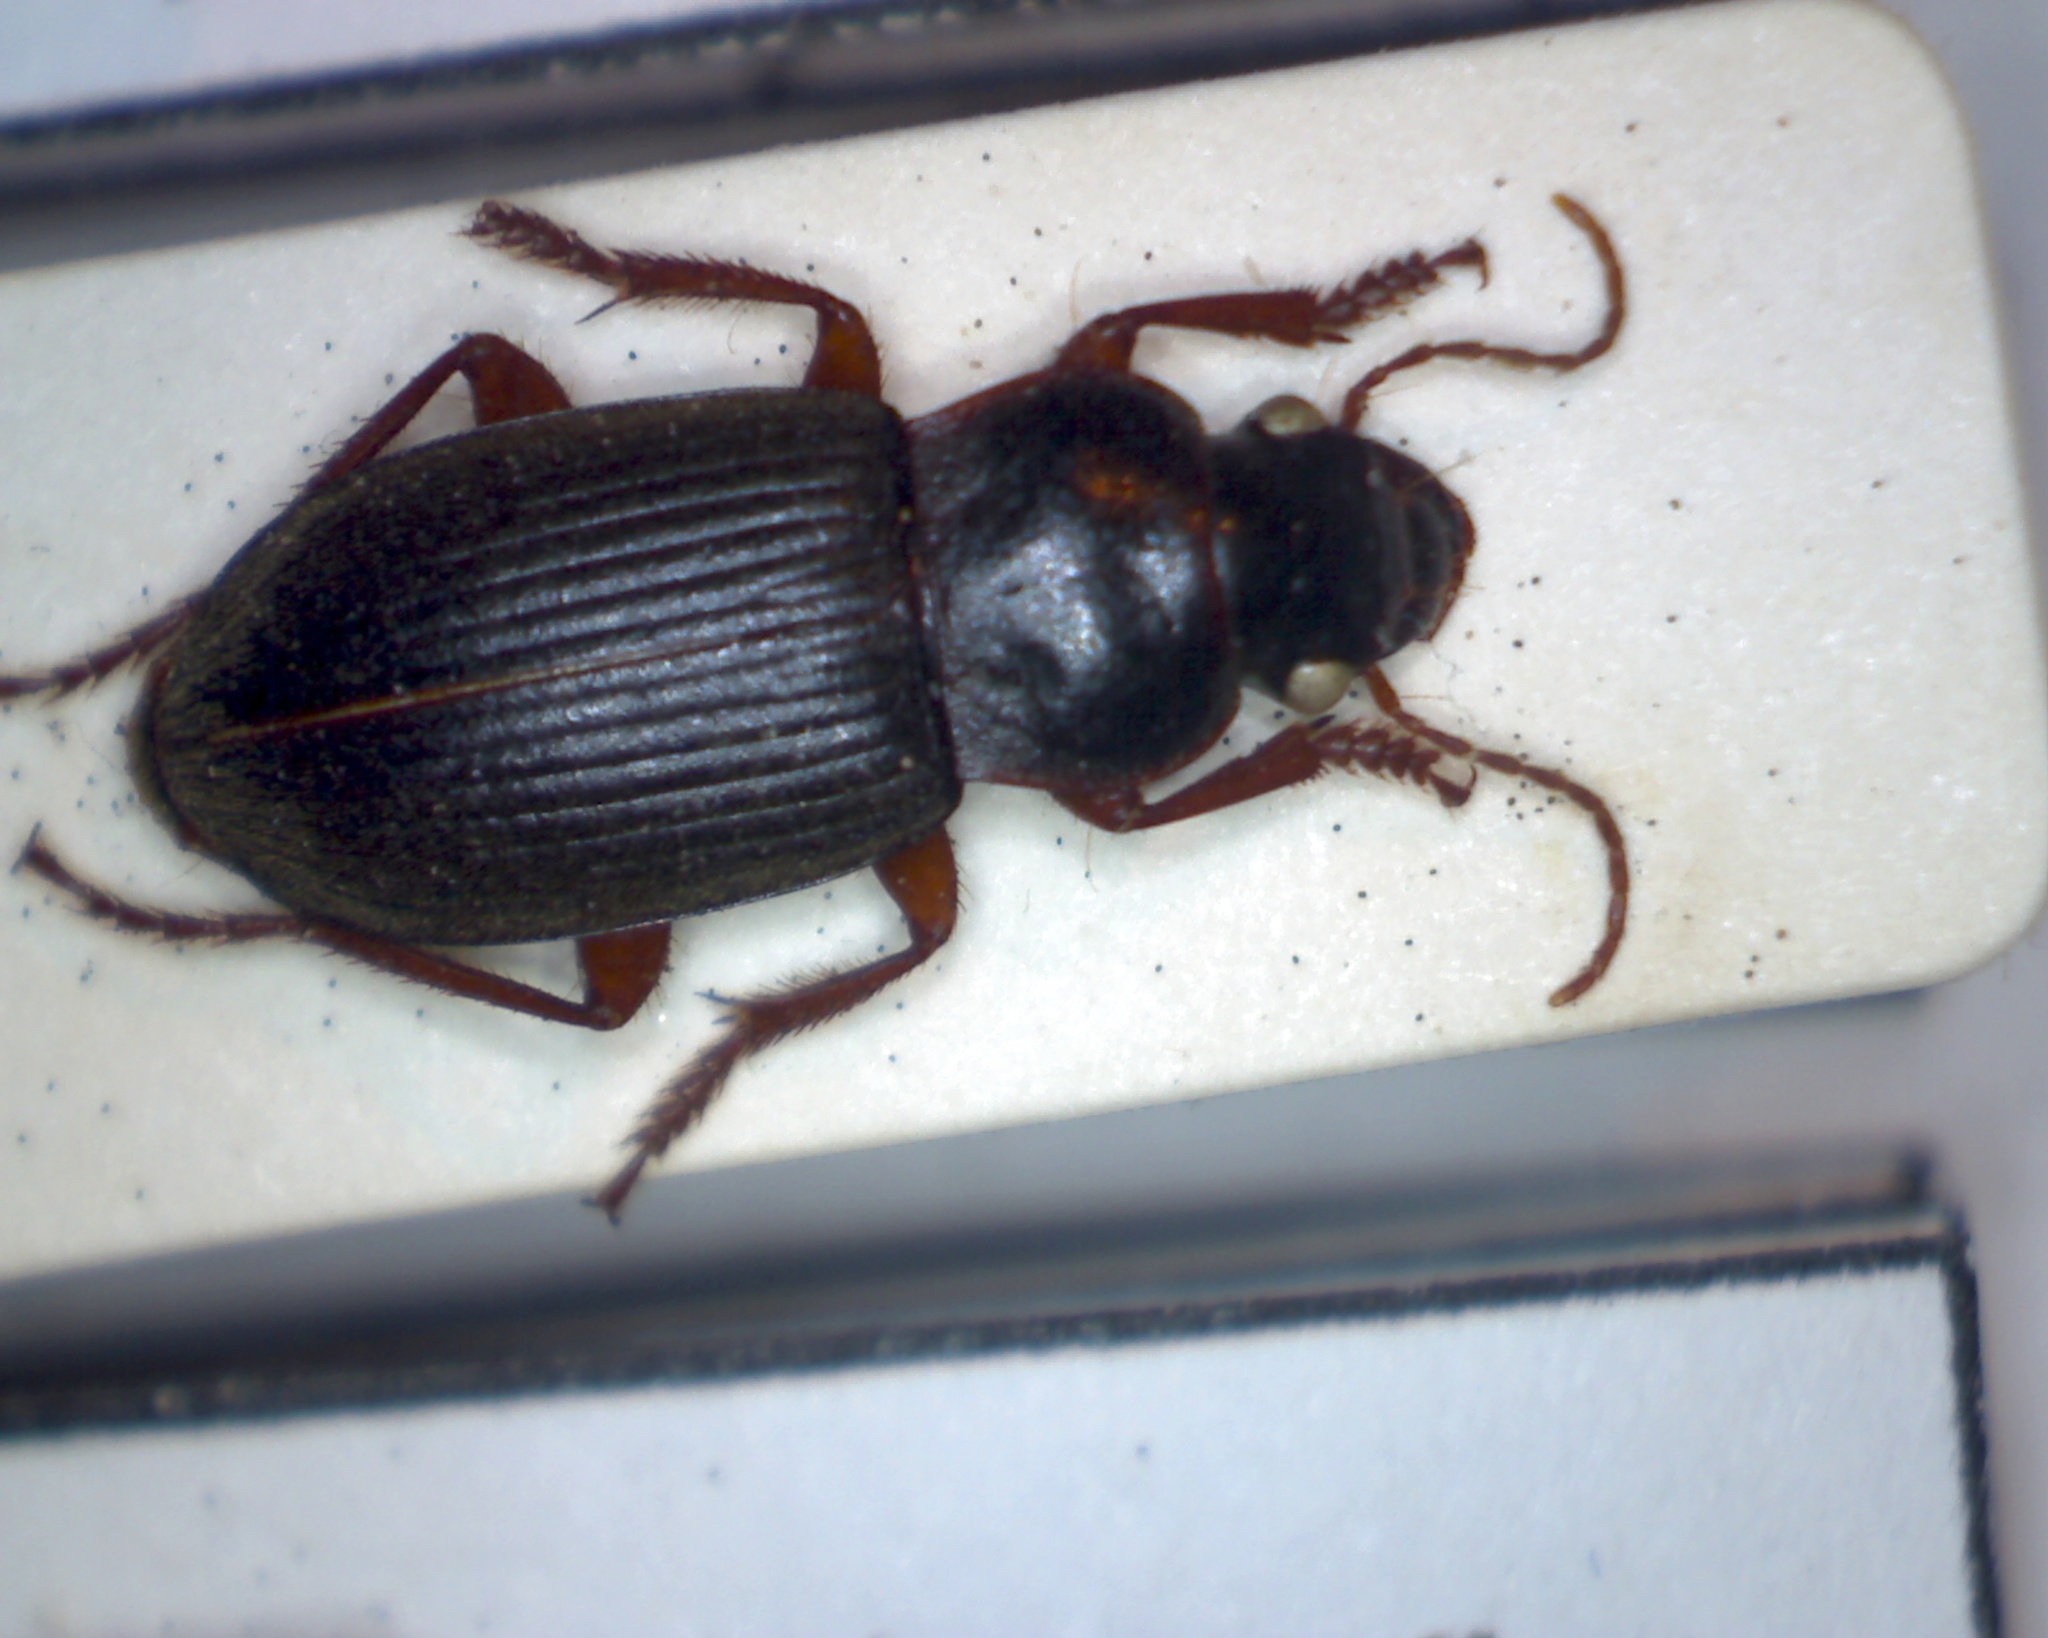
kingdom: Animalia
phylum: Arthropoda
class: Insecta
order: Coleoptera
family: Carabidae
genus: Harpalus
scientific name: Harpalus rufipes
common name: Strawberry harp ground beetle
